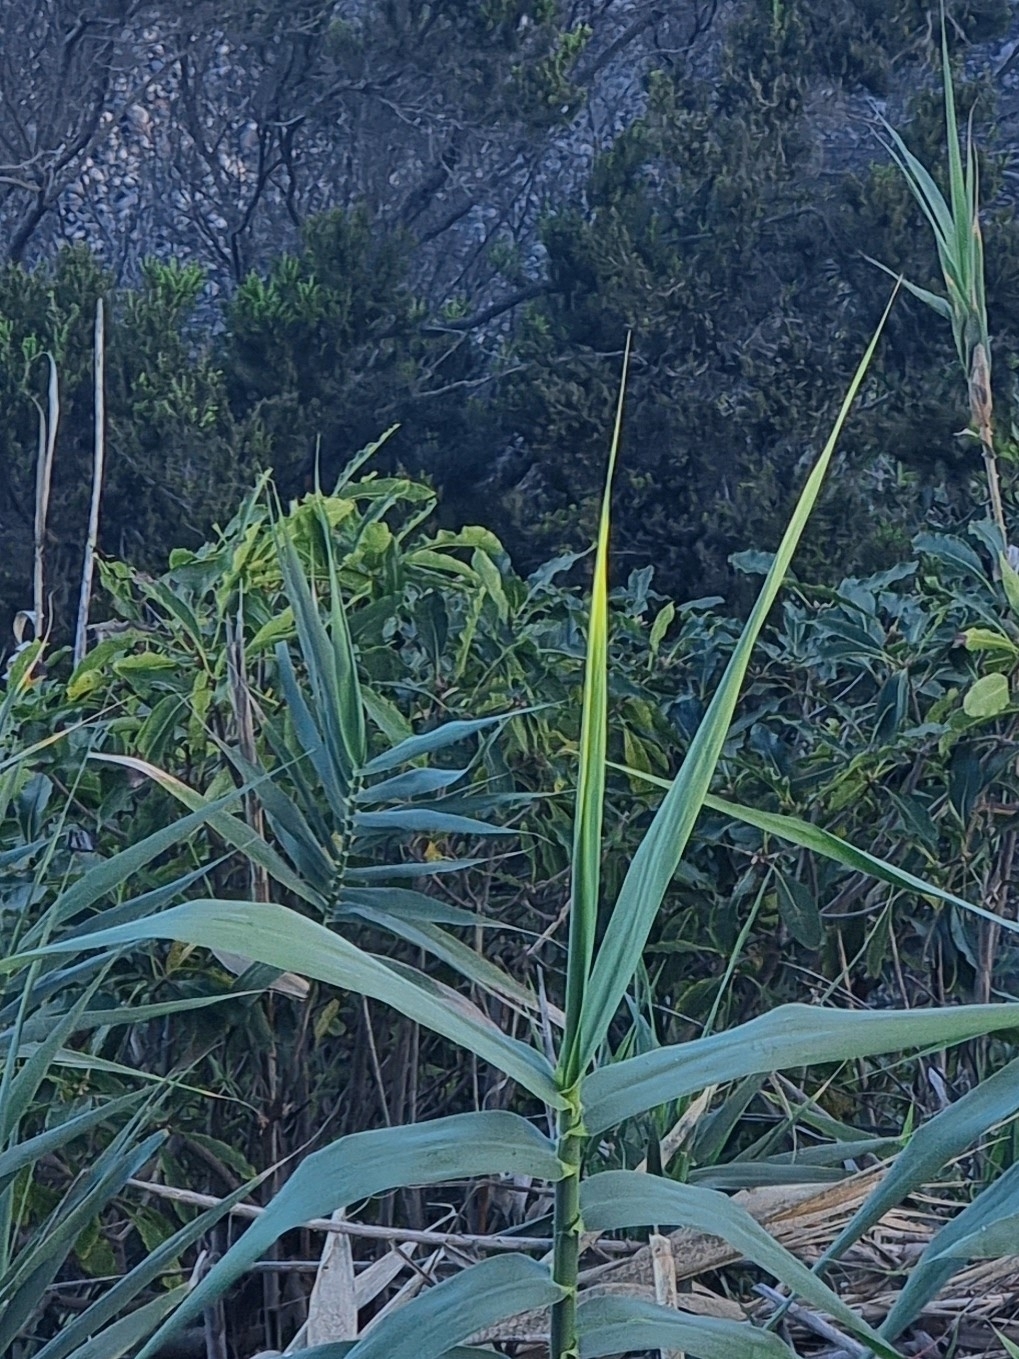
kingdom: Plantae
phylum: Tracheophyta
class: Magnoliopsida
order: Apiales
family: Pittosporaceae
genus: Pittosporum
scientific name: Pittosporum undulatum
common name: Australian cheesewood
